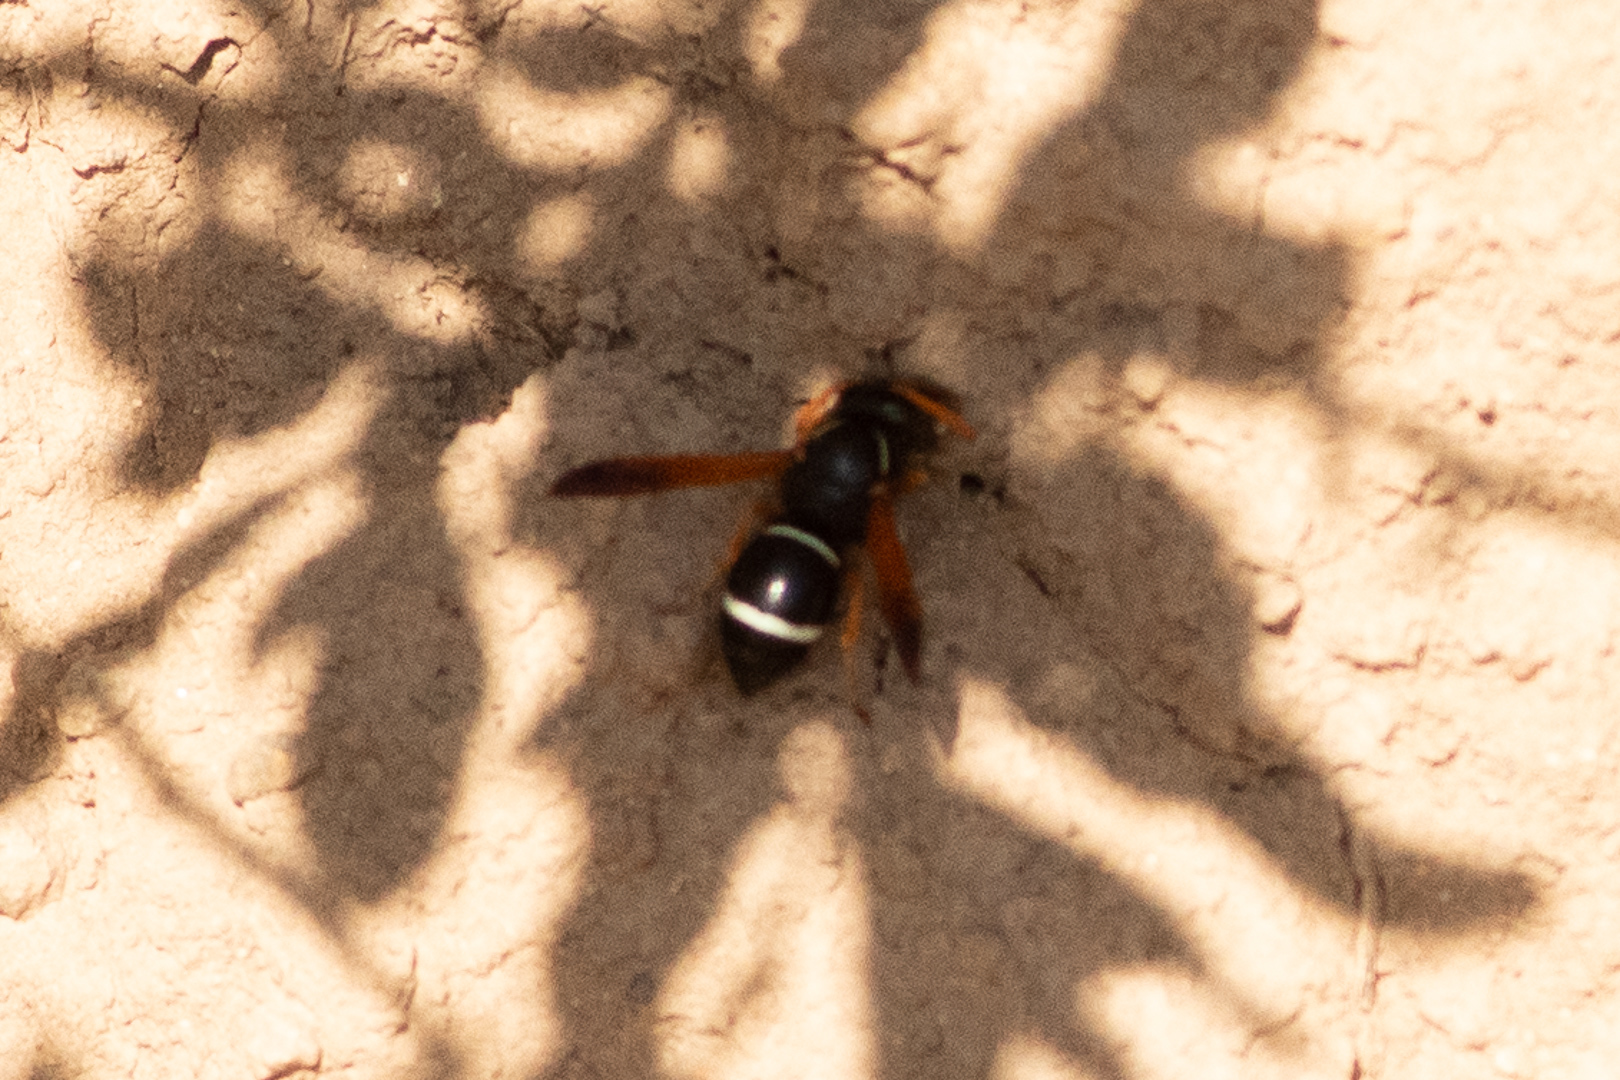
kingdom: Animalia
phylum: Arthropoda
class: Insecta
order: Hymenoptera
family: Vespidae
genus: Hypodynerus
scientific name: Hypodynerus vespiformis
